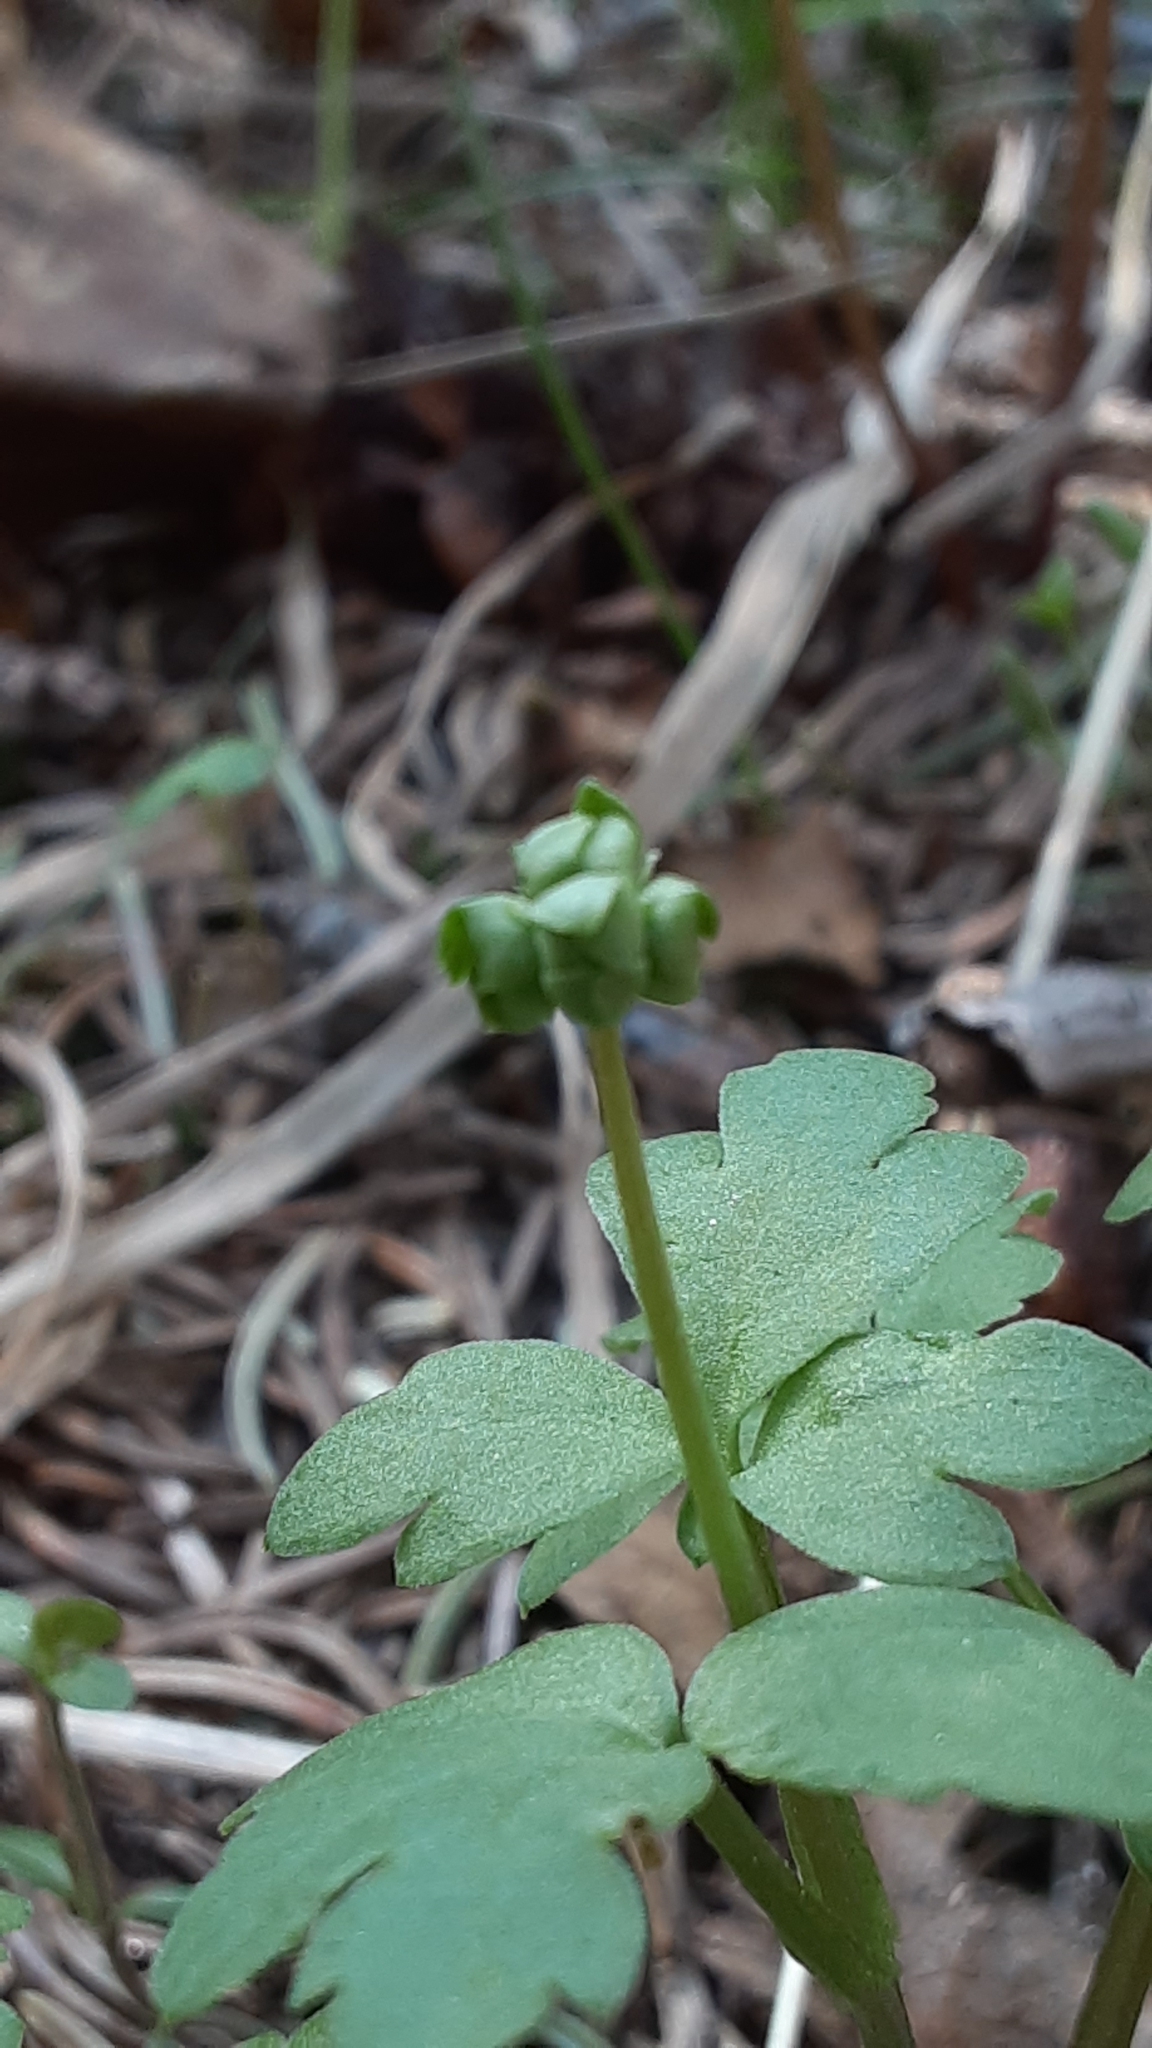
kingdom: Plantae
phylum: Tracheophyta
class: Magnoliopsida
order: Dipsacales
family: Viburnaceae
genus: Adoxa
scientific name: Adoxa moschatellina
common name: Moschatel
